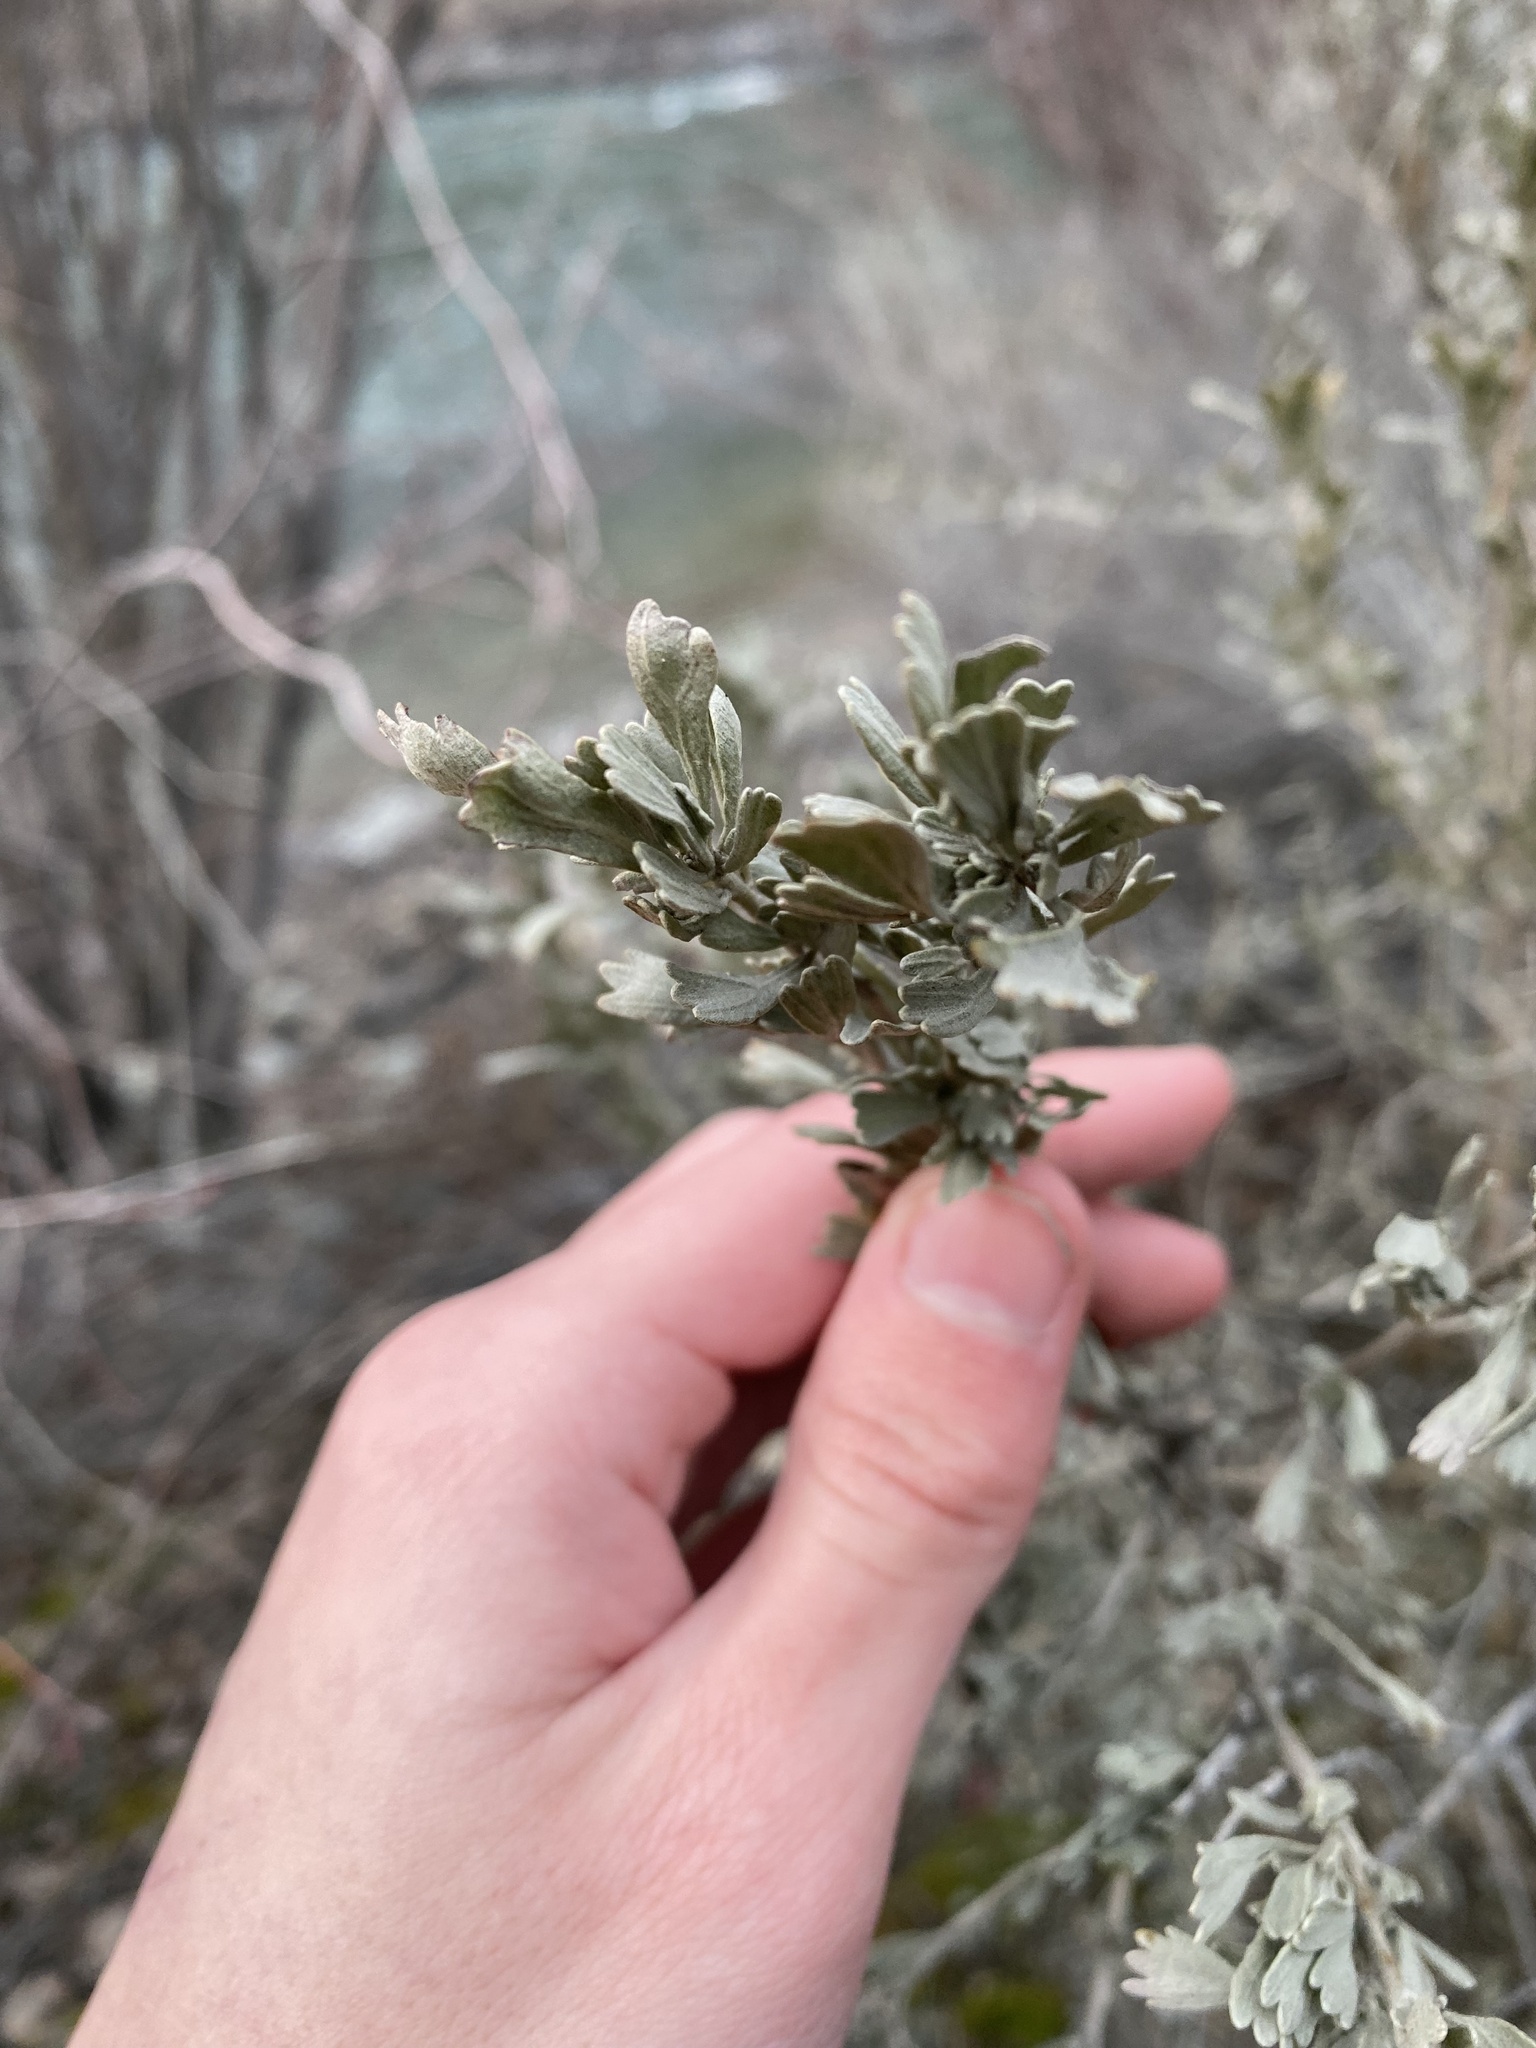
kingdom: Plantae
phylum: Tracheophyta
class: Magnoliopsida
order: Asterales
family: Asteraceae
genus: Artemisia
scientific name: Artemisia tridentata
